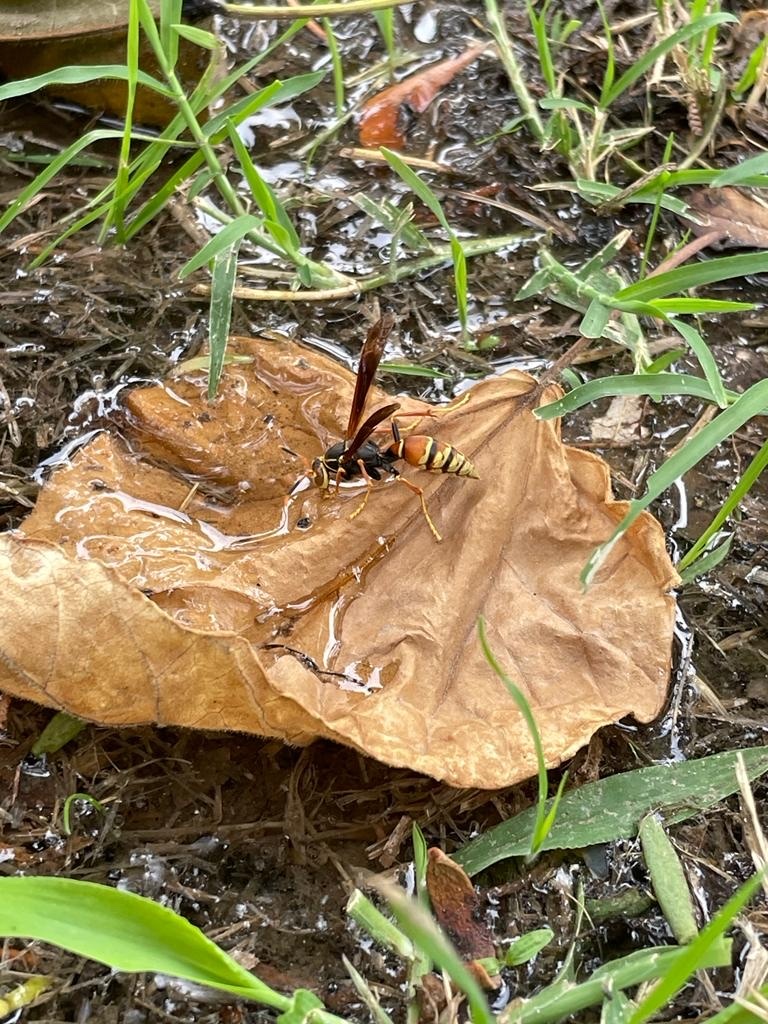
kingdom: Animalia
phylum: Arthropoda
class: Insecta
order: Hymenoptera
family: Eumenidae
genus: Polistes
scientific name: Polistes buyssoni
